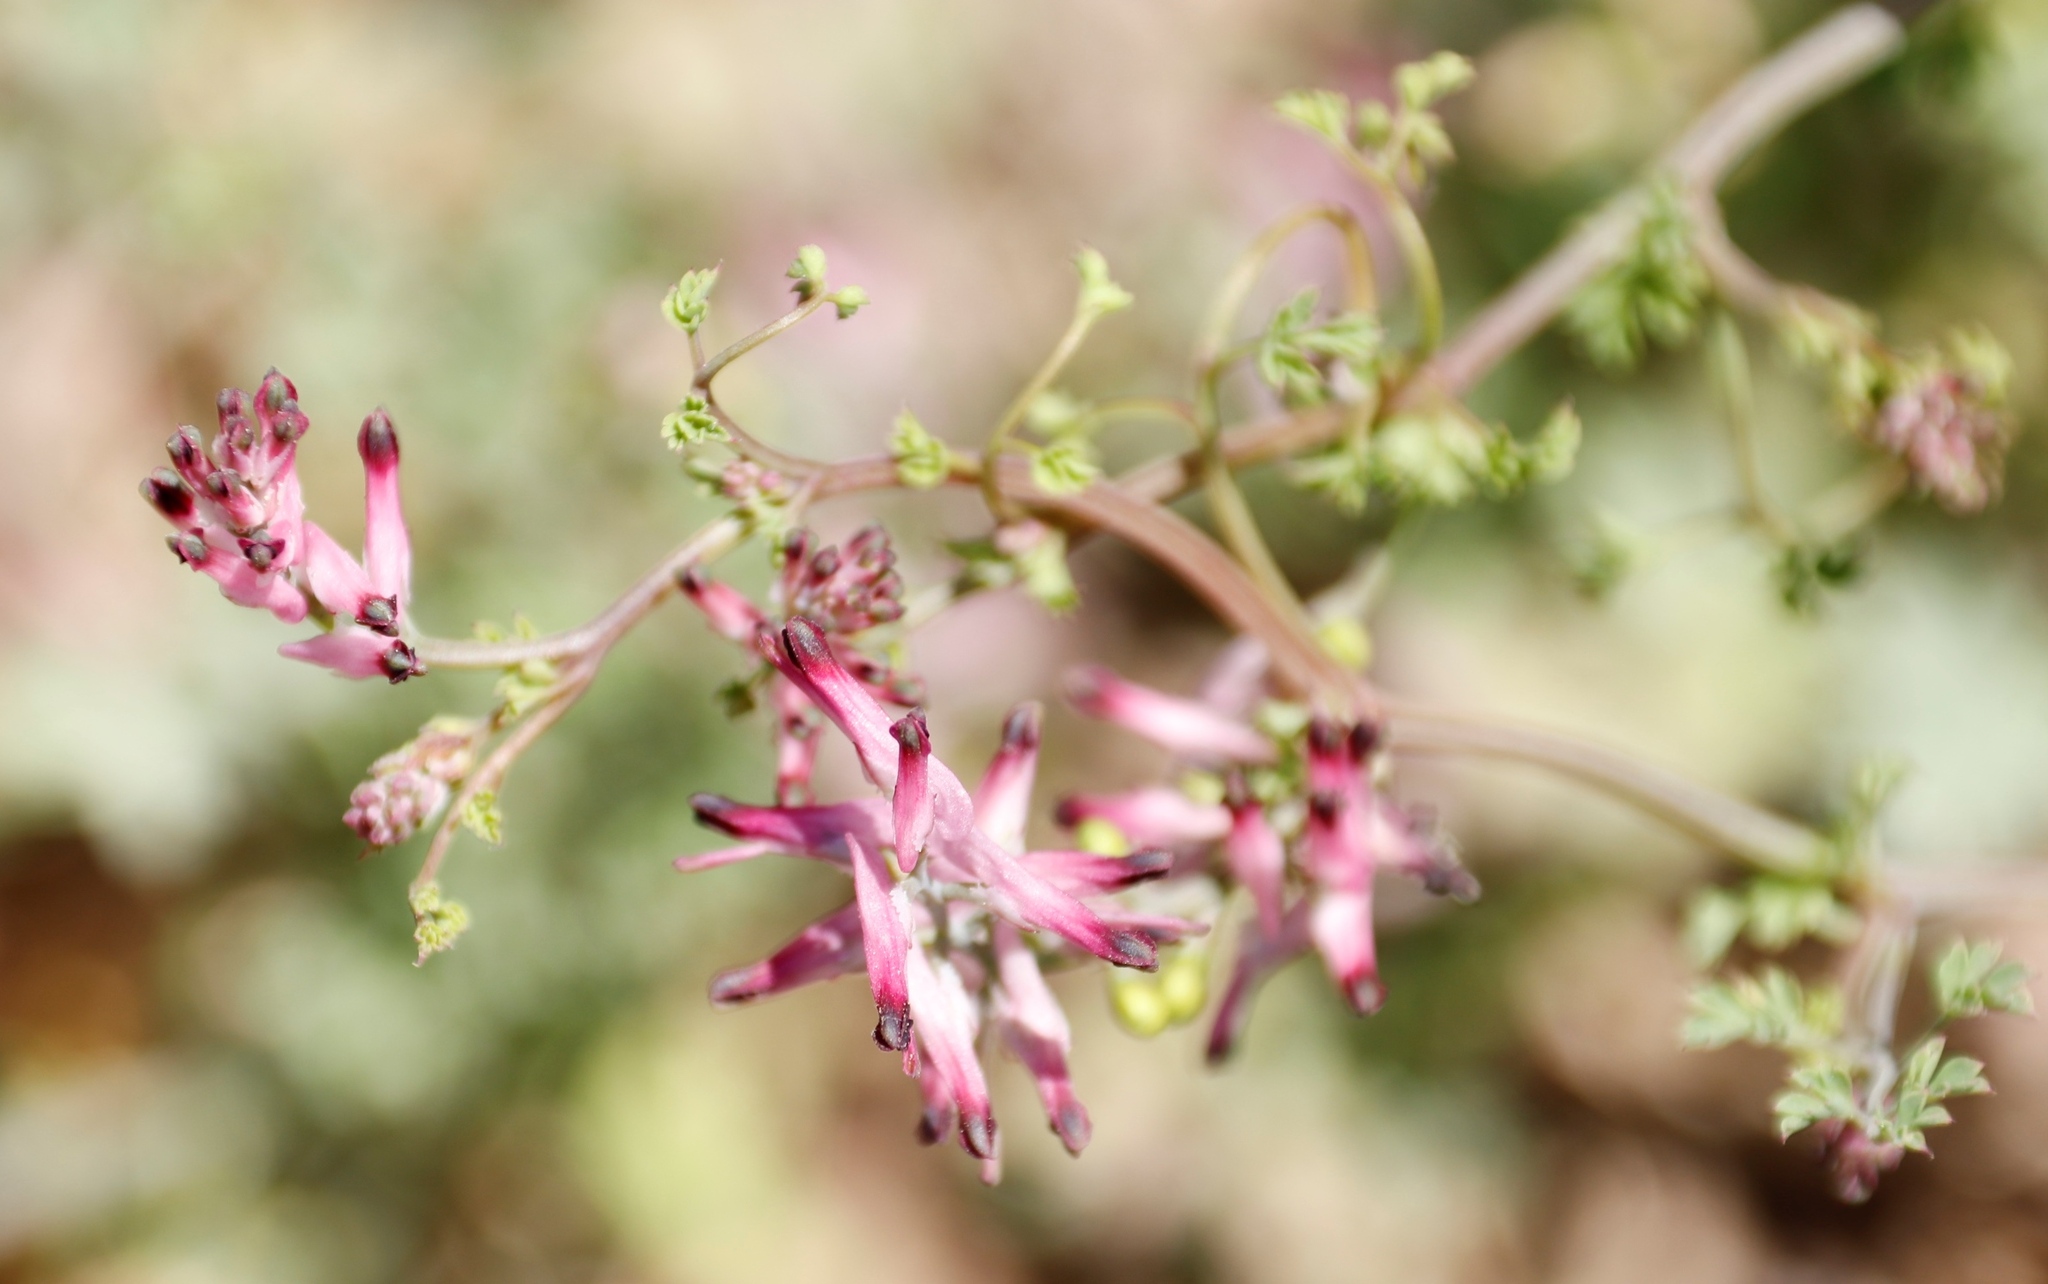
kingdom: Plantae
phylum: Tracheophyta
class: Magnoliopsida
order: Ranunculales
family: Papaveraceae
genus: Fumaria
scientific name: Fumaria muralis
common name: Common ramping-fumitory
